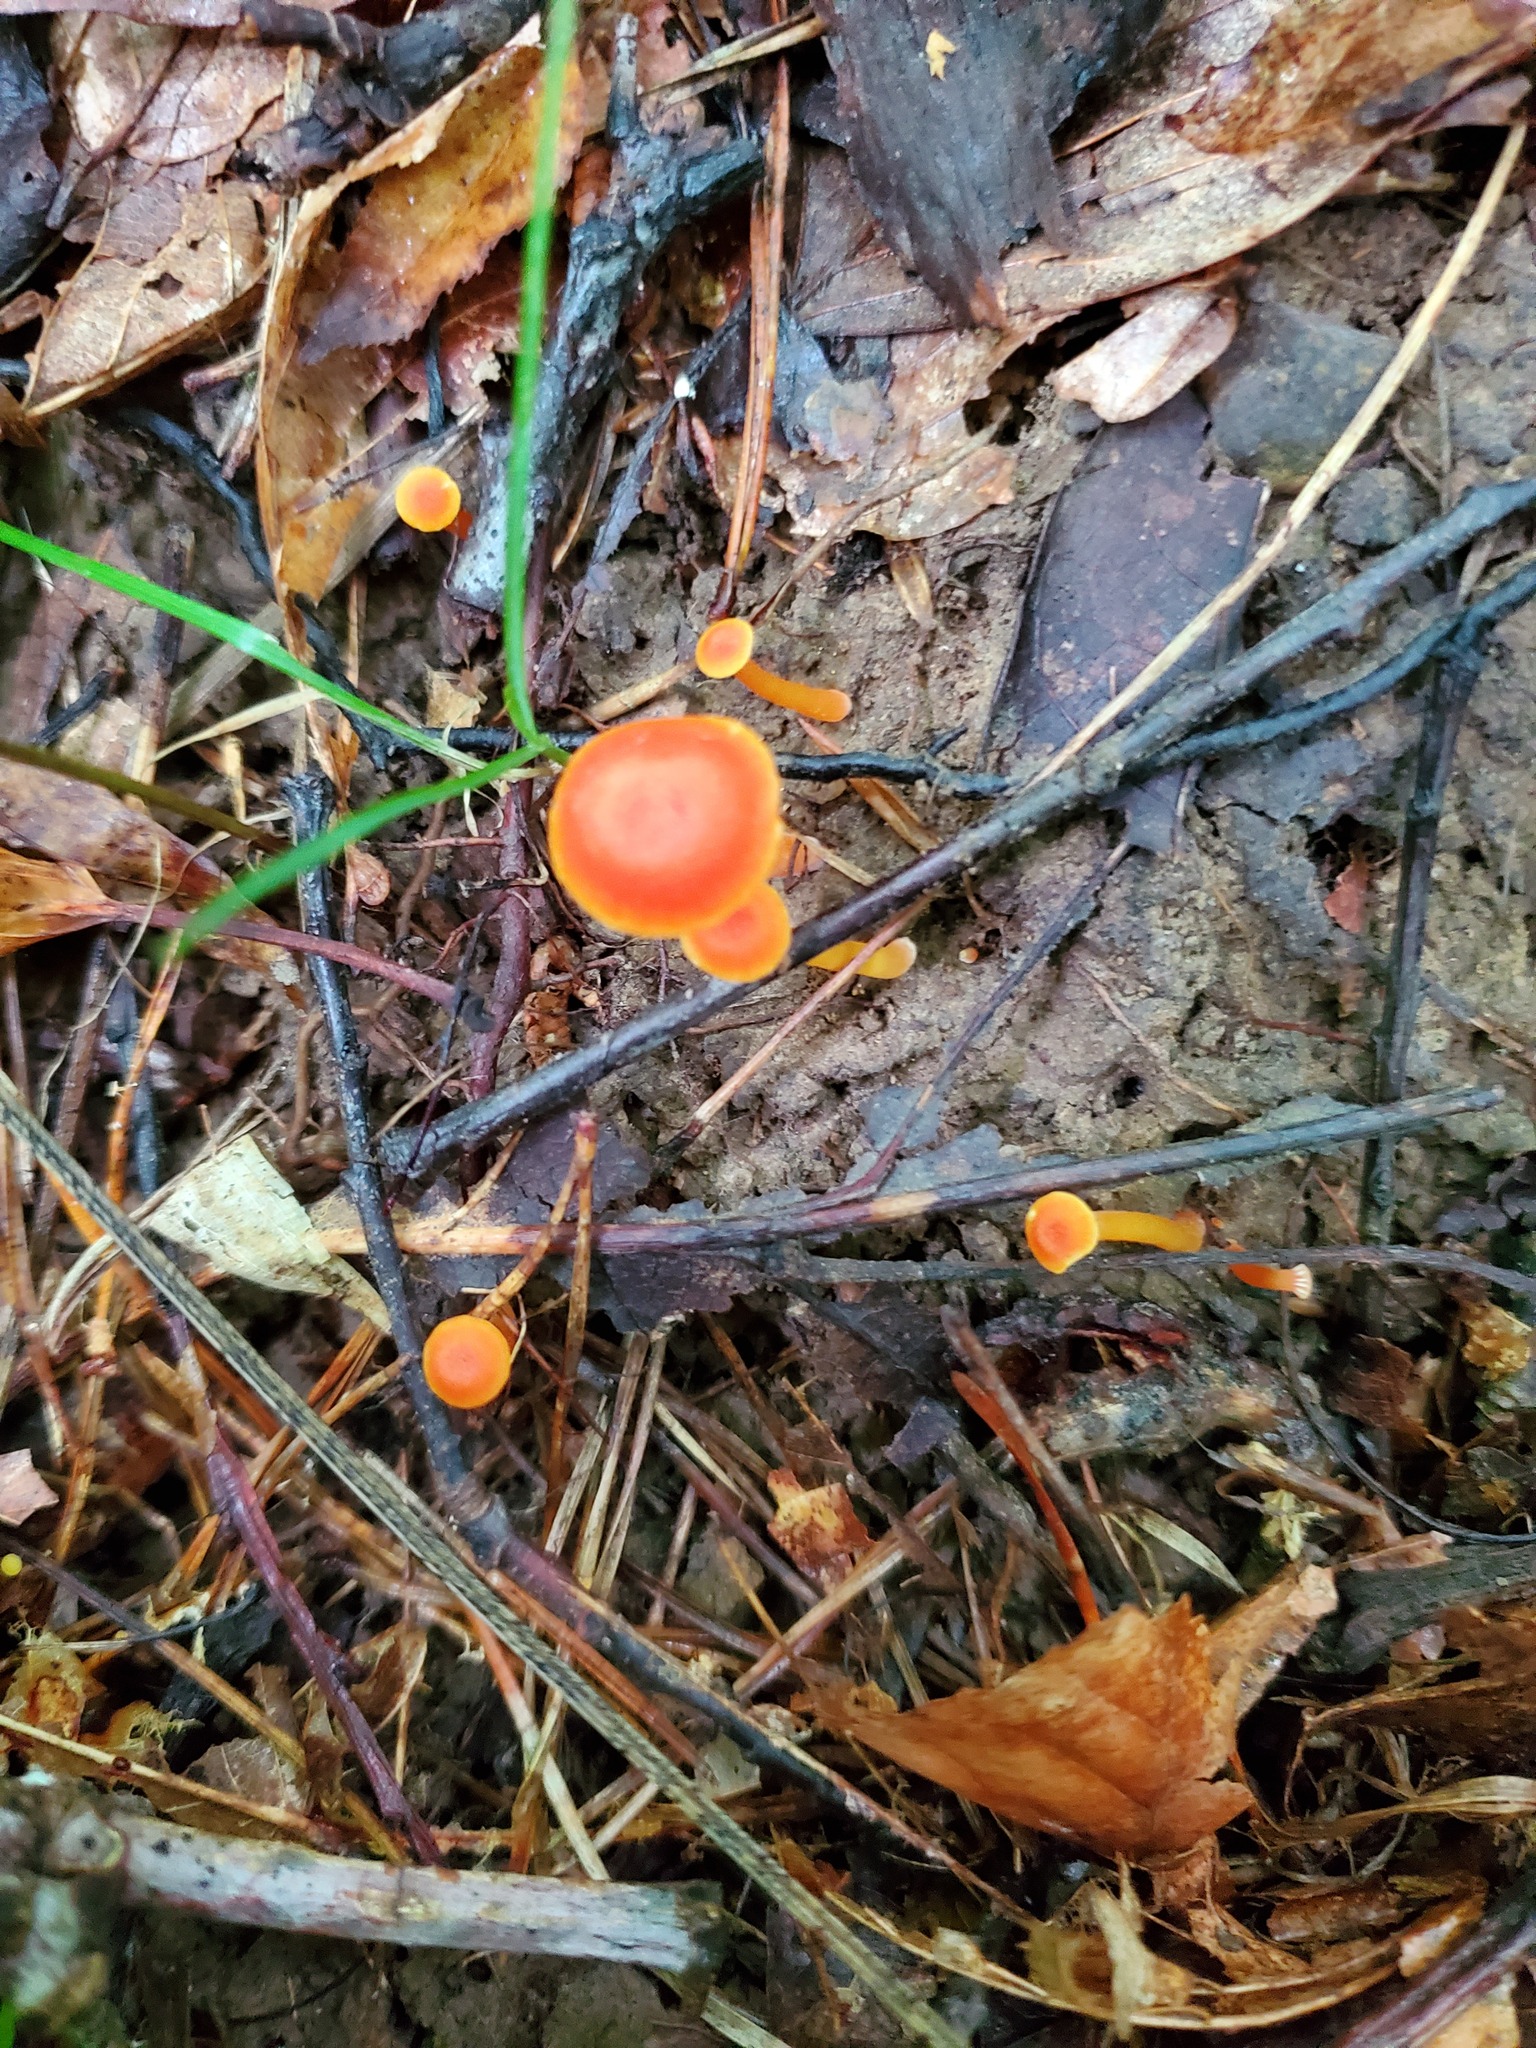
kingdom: Fungi
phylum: Basidiomycota
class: Agaricomycetes
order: Agaricales
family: Hygrophoraceae
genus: Hygrocybe
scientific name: Hygrocybe miniata
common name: Vermilion waxcap
